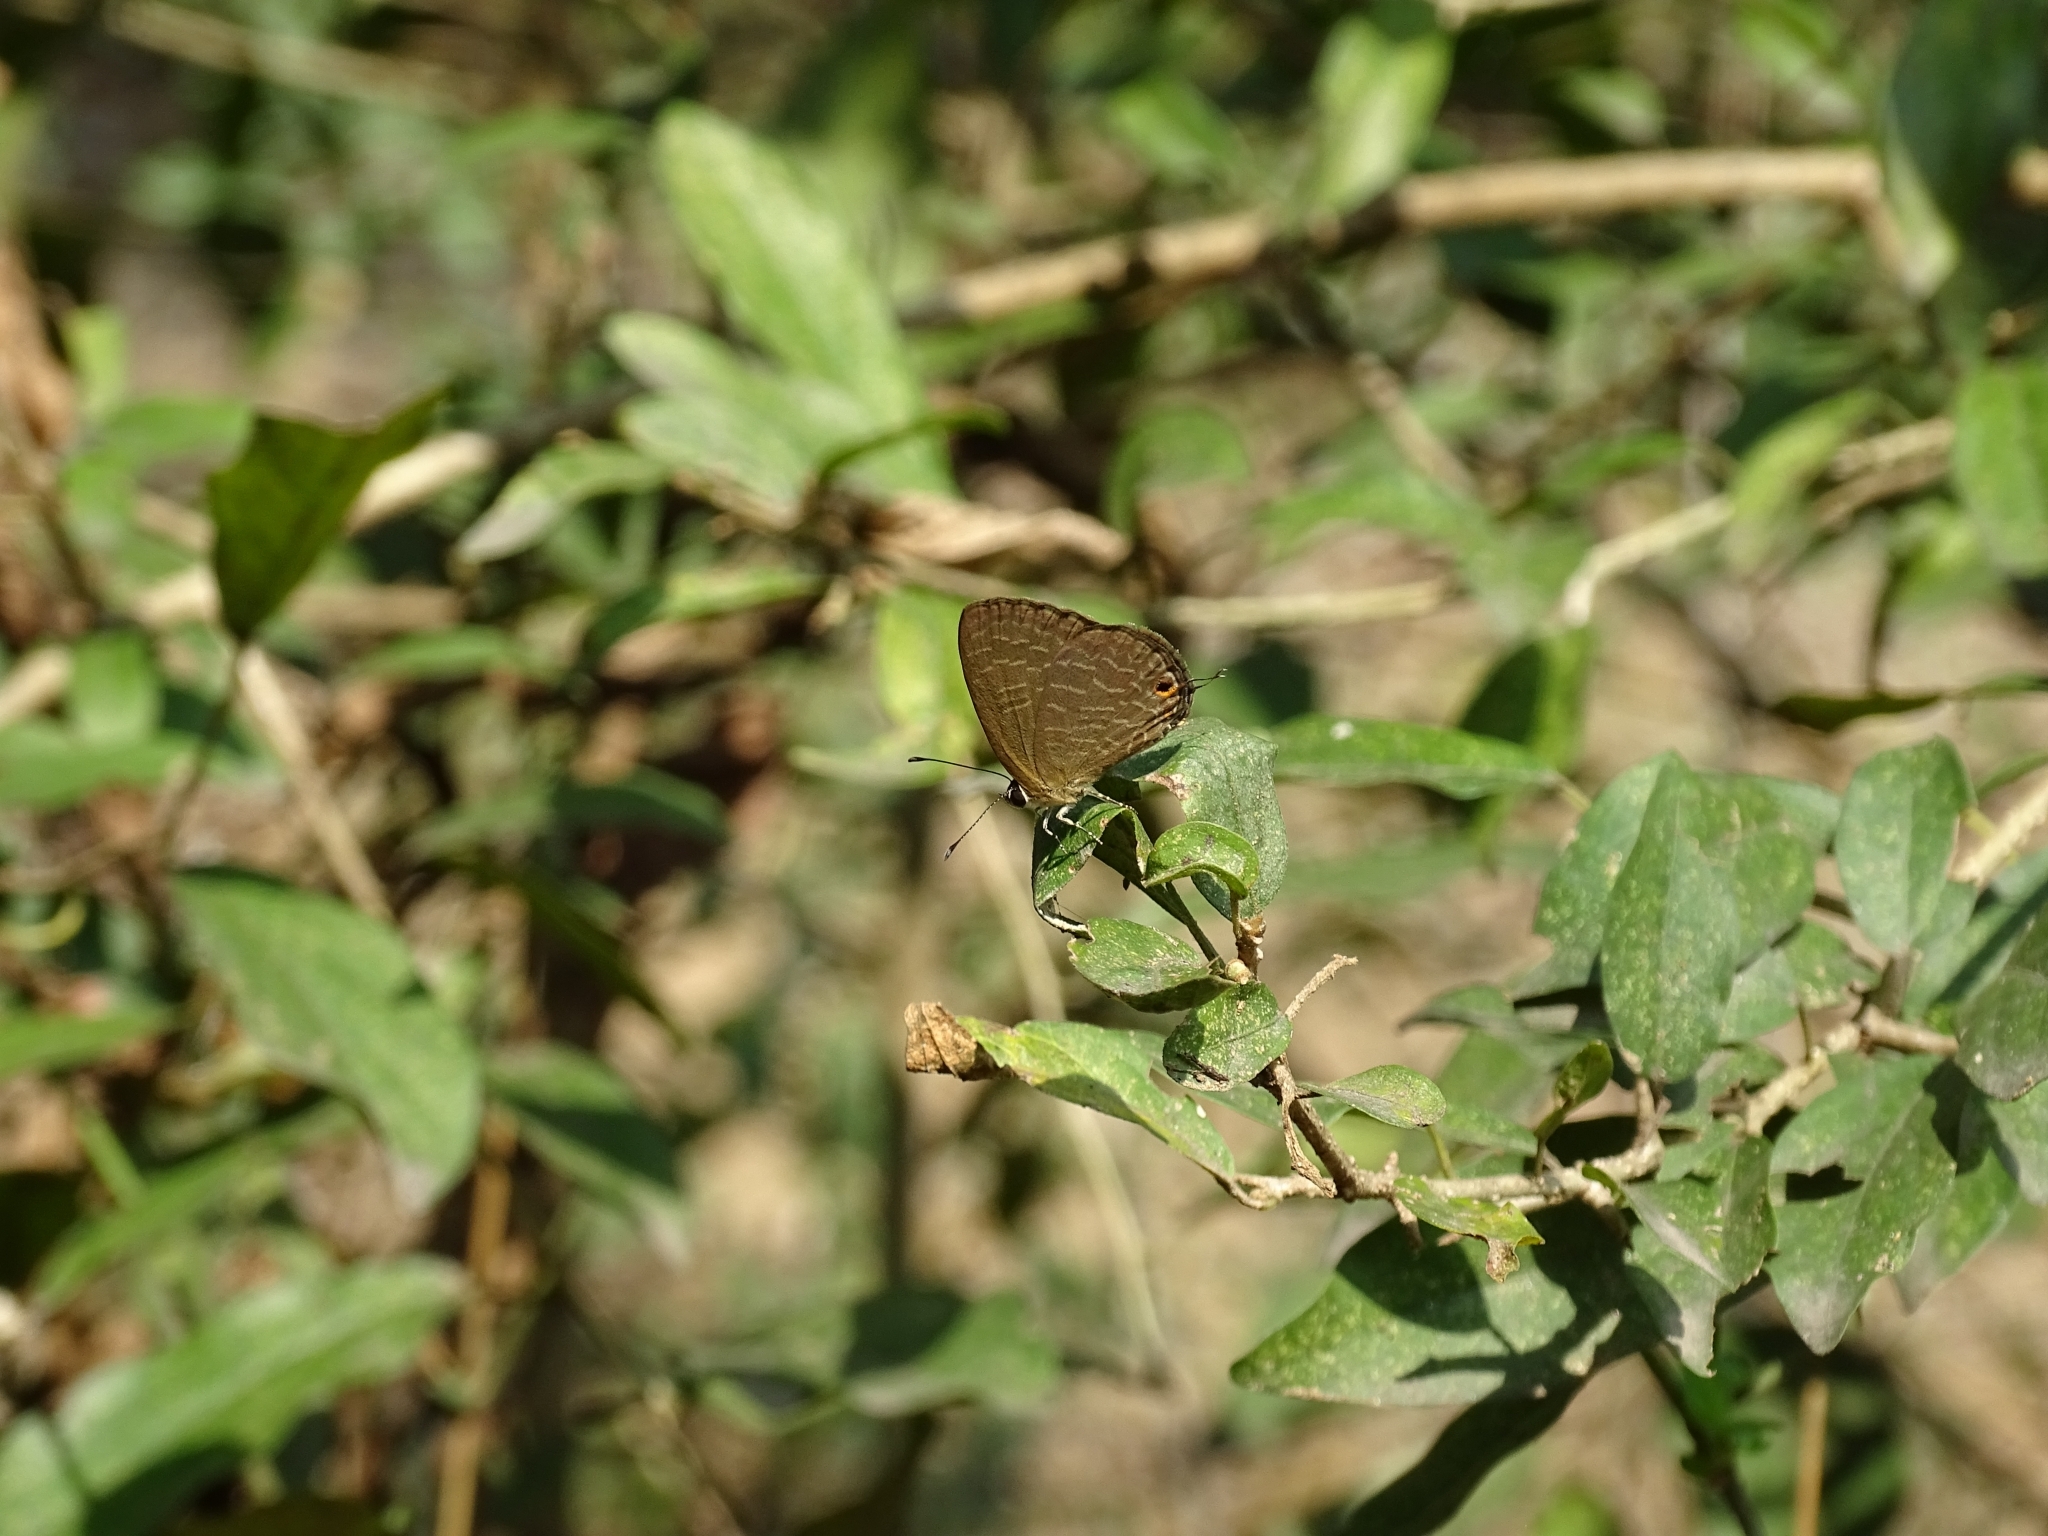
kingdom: Animalia
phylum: Arthropoda
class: Insecta
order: Lepidoptera
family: Lycaenidae
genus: Jamides
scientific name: Jamides bochus
